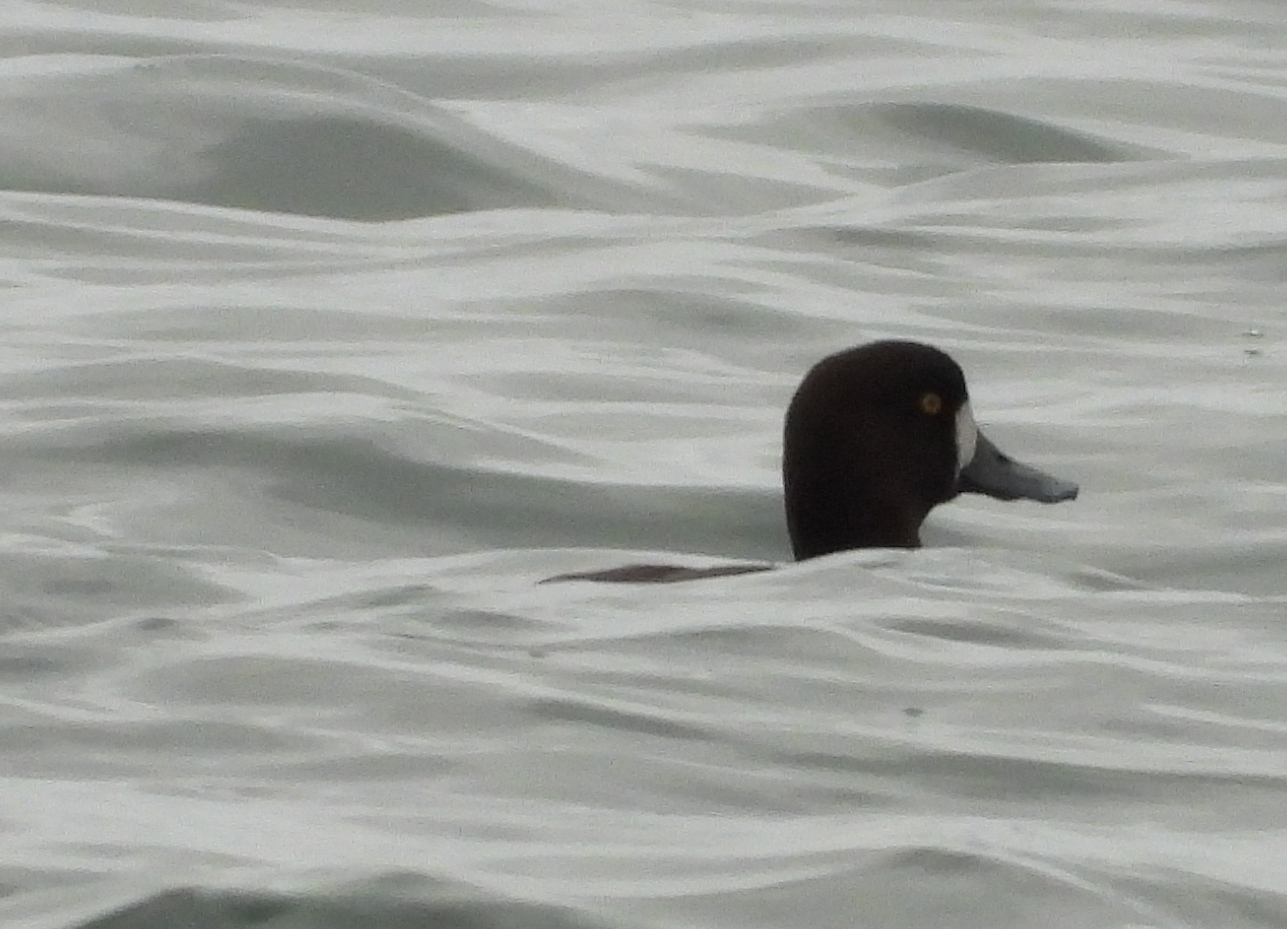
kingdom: Animalia
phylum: Chordata
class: Aves
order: Anseriformes
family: Anatidae
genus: Aythya
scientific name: Aythya marila
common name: Greater scaup
